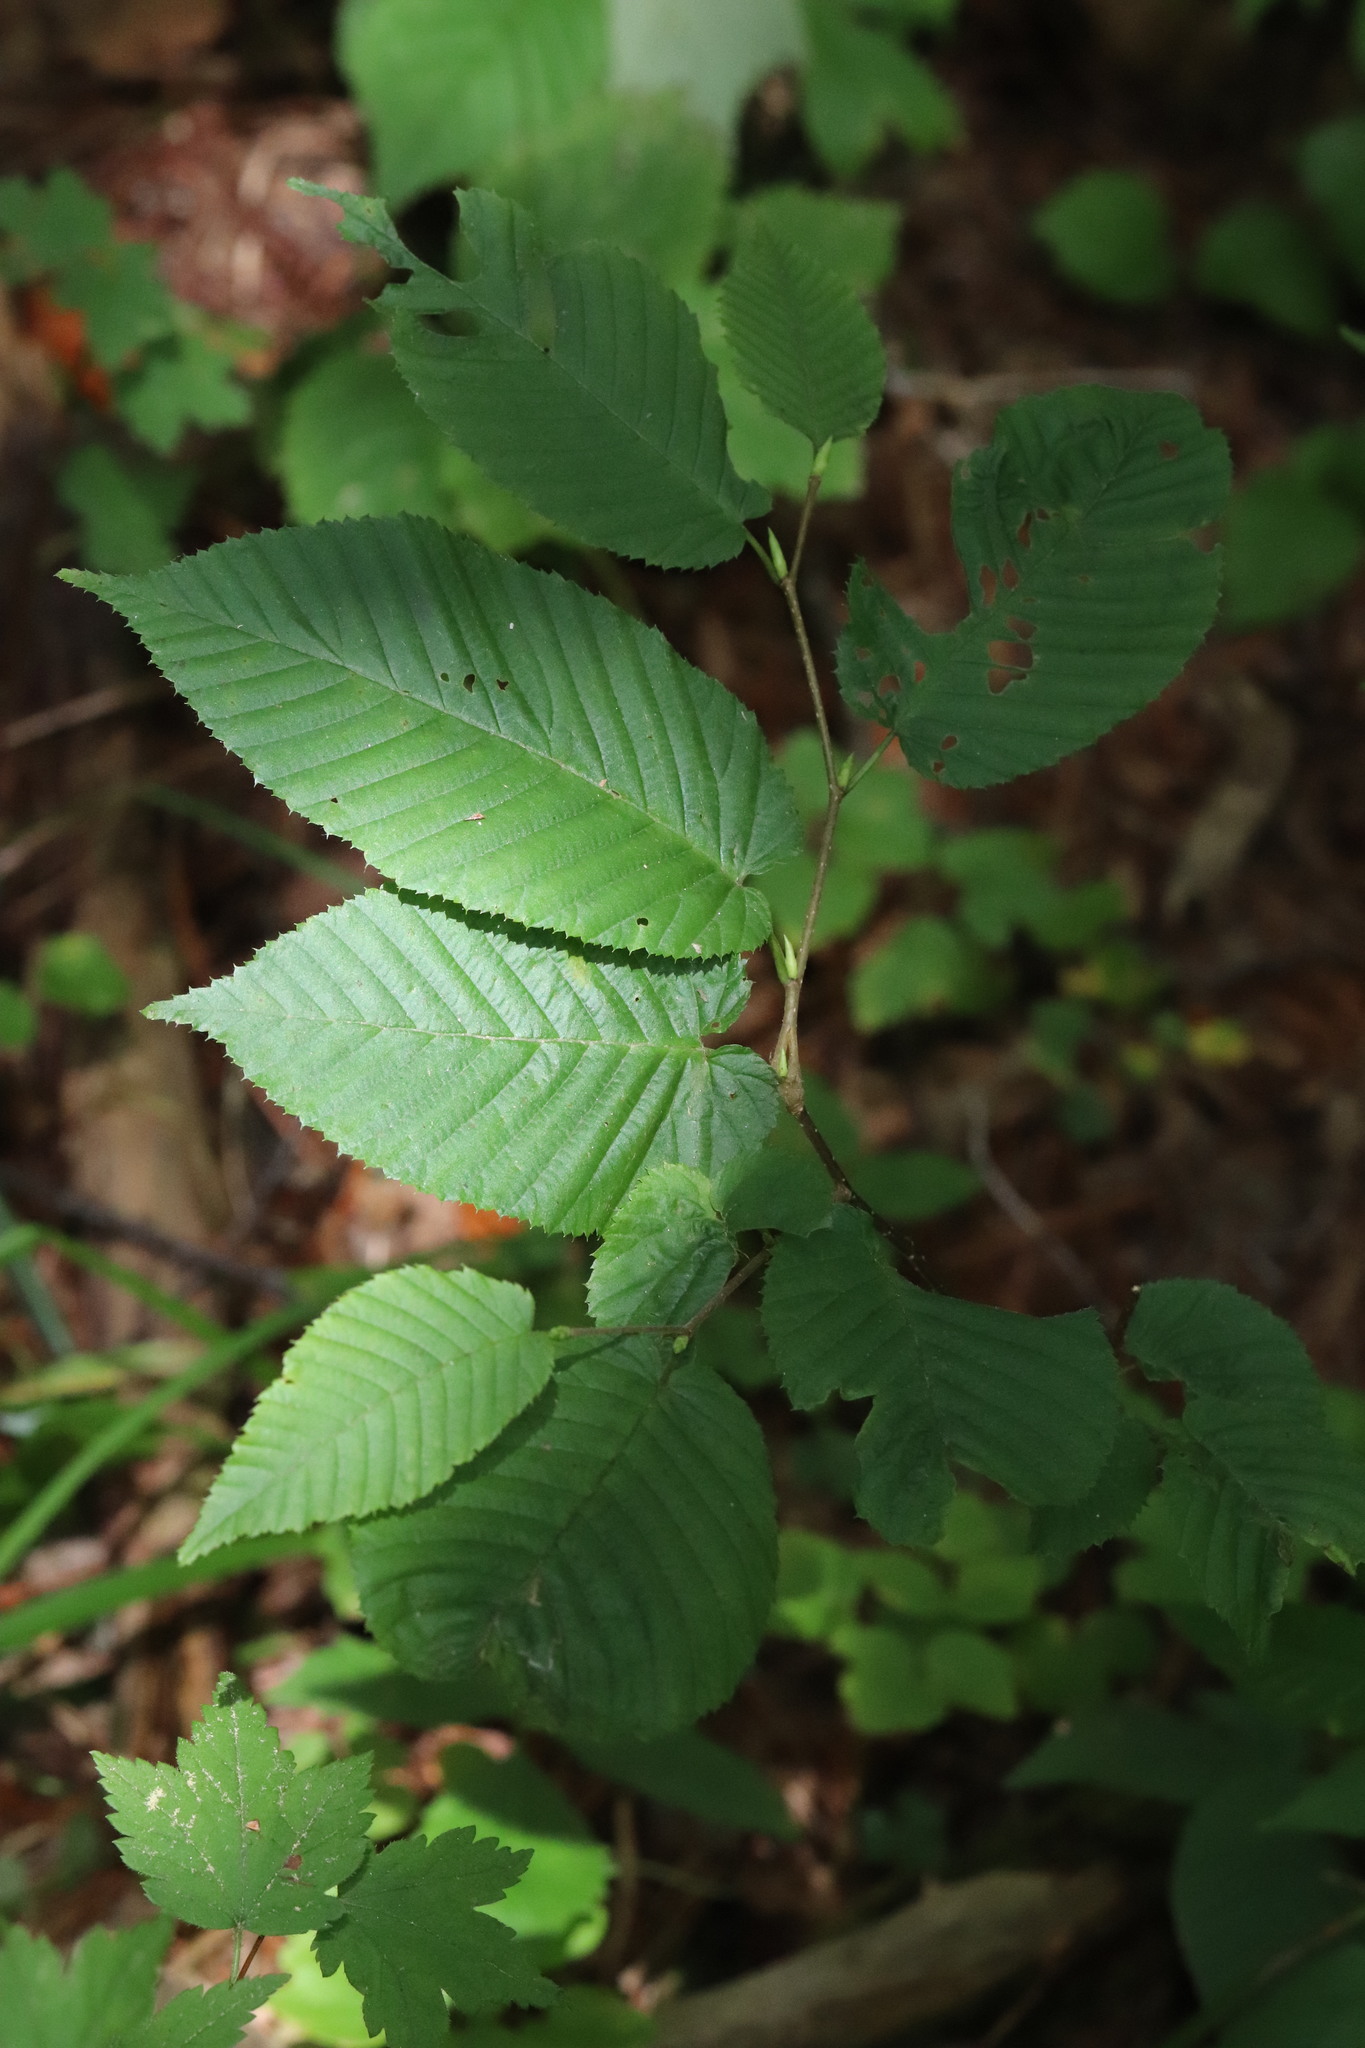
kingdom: Plantae
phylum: Tracheophyta
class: Magnoliopsida
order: Fagales
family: Betulaceae
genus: Carpinus
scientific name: Carpinus cordata
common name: Sawa hornbeam
